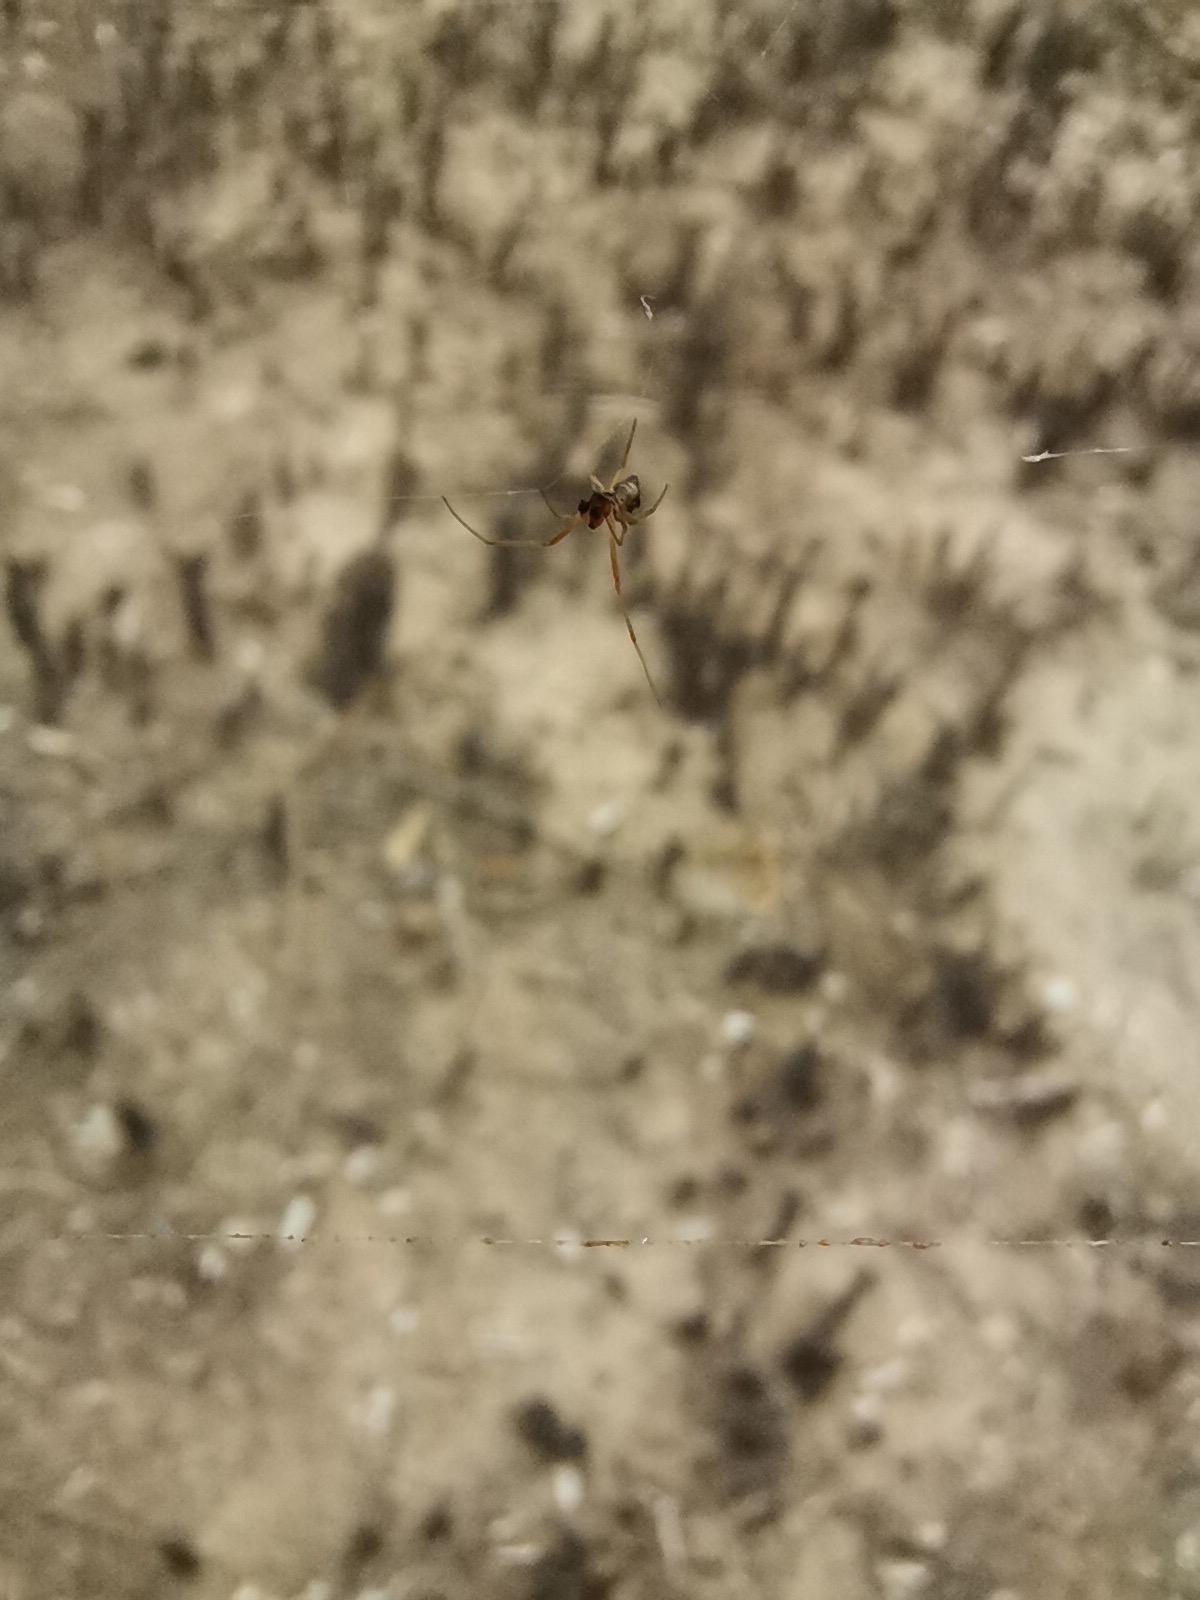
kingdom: Animalia
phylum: Arthropoda
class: Arachnida
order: Araneae
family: Theridiidae
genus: Argyrodes
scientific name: Argyrodes argyrodes
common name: Dewdrop spider
